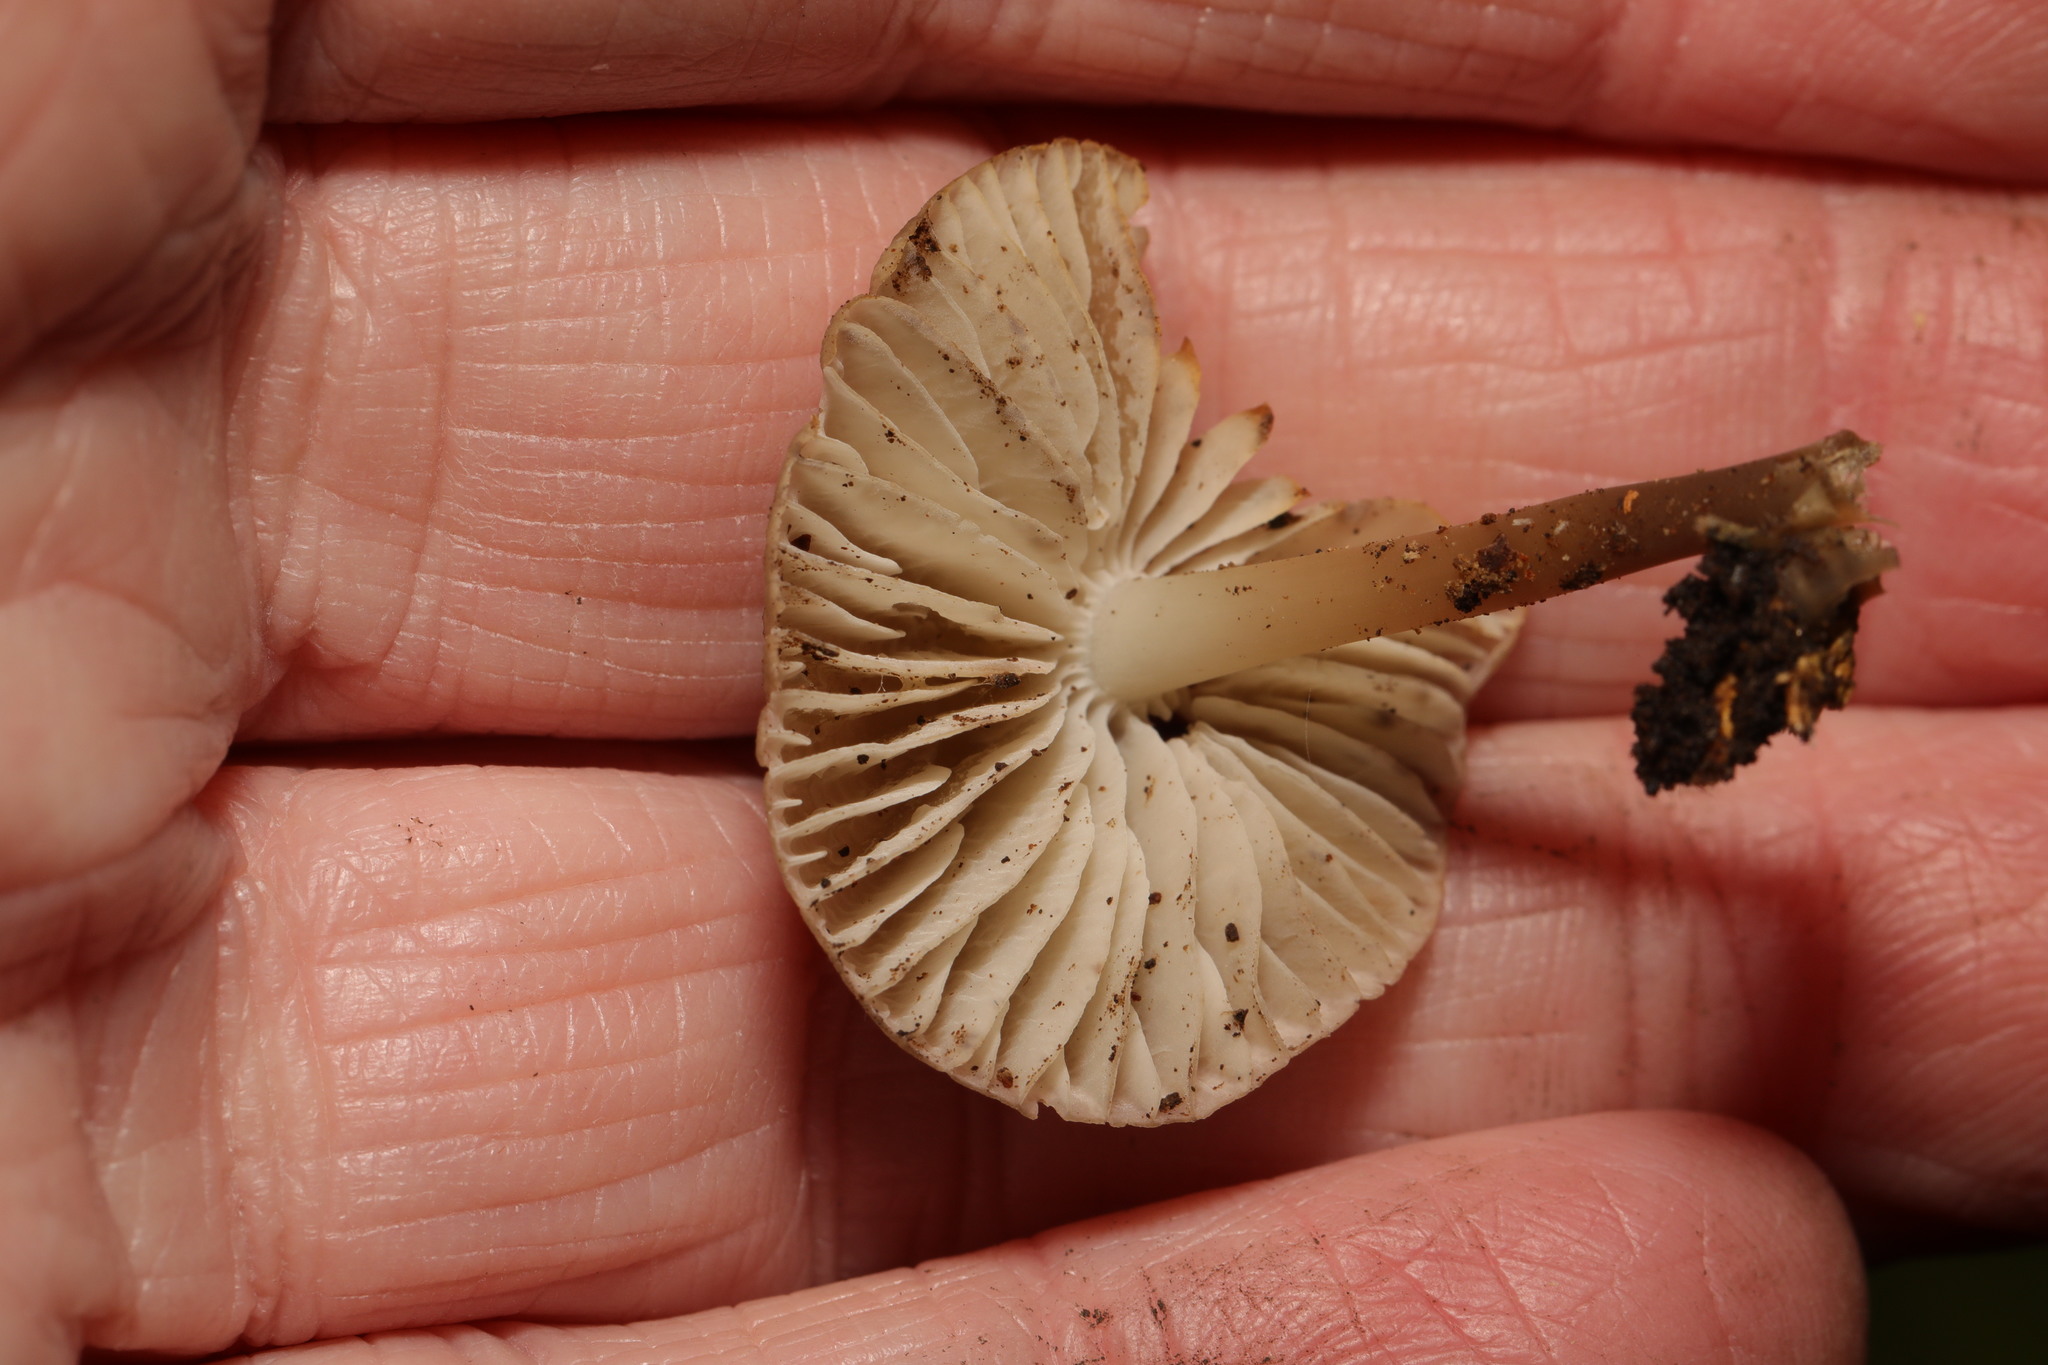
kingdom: Fungi
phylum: Basidiomycota
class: Agaricomycetes
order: Agaricales
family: Mycenaceae
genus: Mycena
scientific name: Mycena
